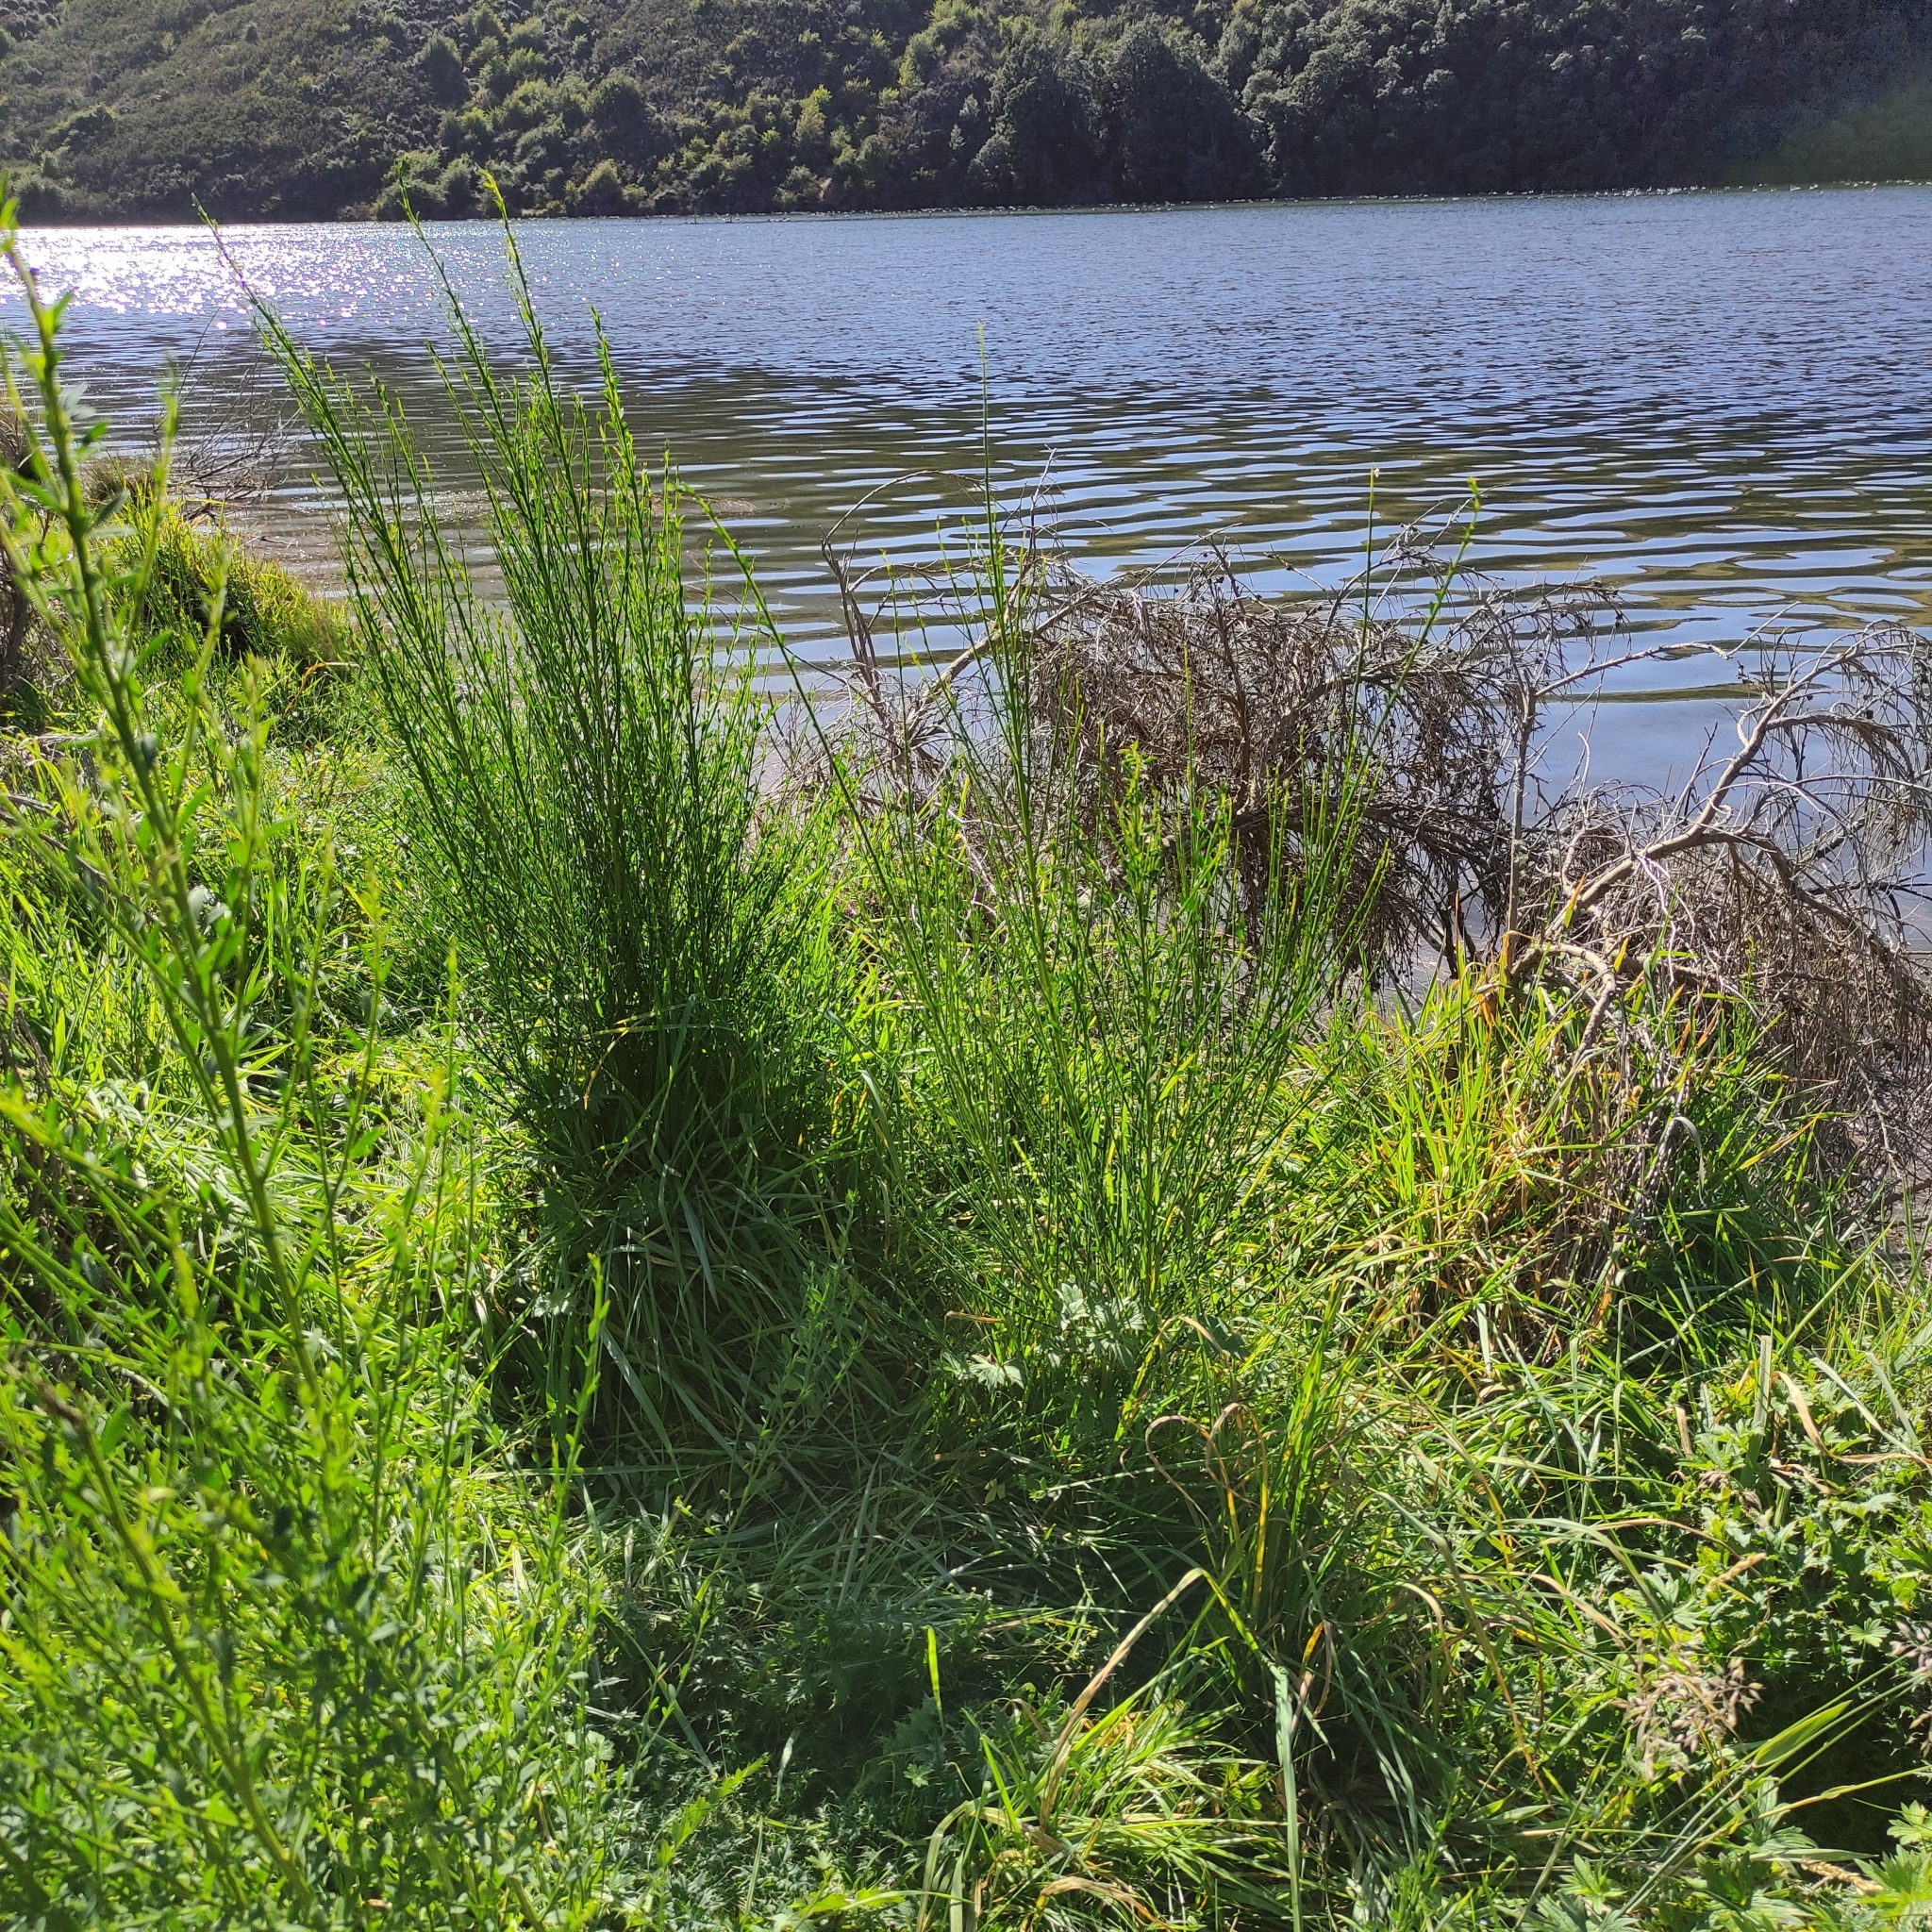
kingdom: Plantae
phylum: Tracheophyta
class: Magnoliopsida
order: Fabales
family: Fabaceae
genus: Cytisus
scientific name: Cytisus scoparius
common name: Scotch broom
